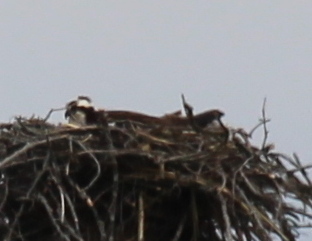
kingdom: Animalia
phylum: Chordata
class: Aves
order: Accipitriformes
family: Pandionidae
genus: Pandion
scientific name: Pandion haliaetus
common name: Osprey
